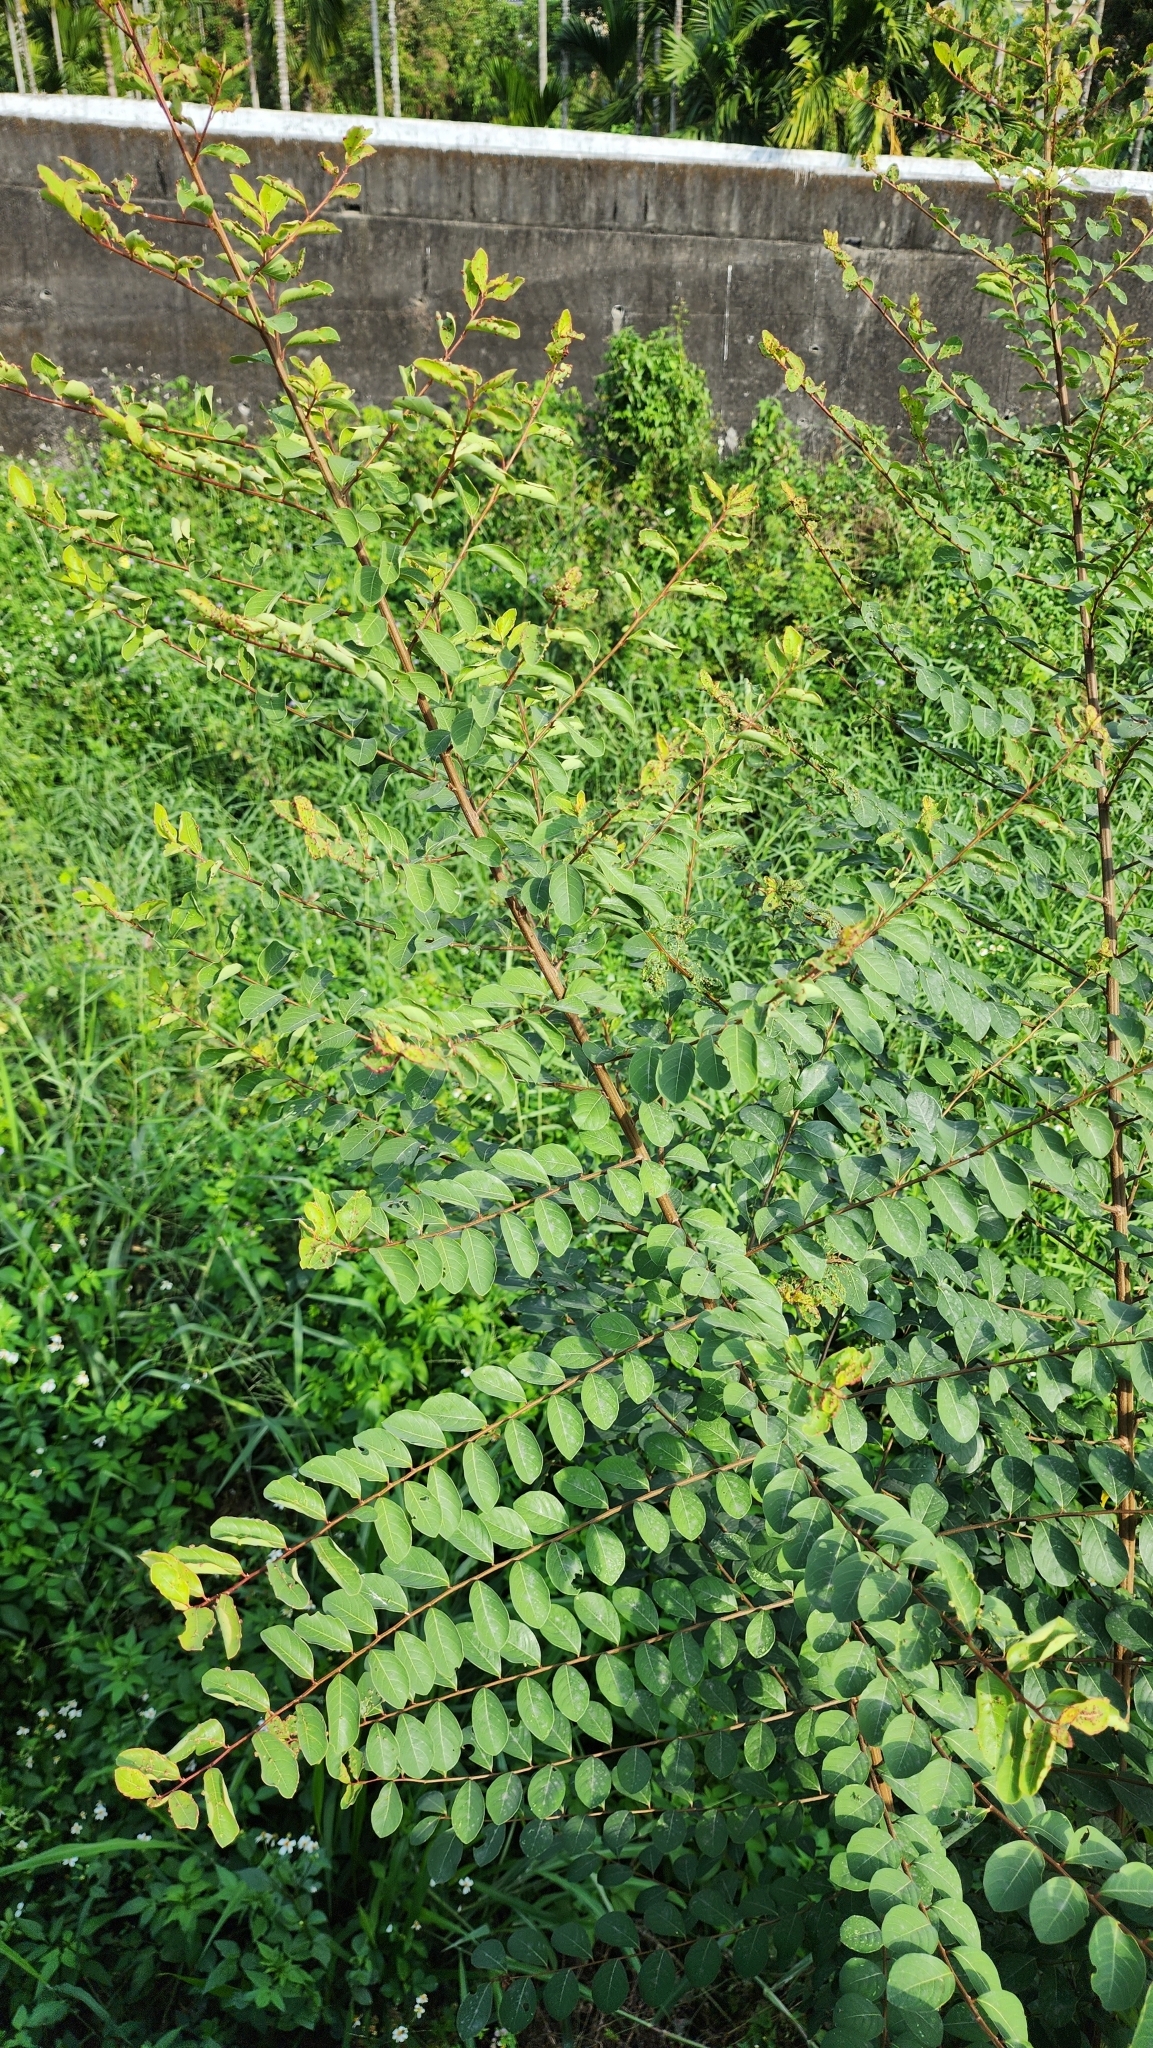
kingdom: Plantae
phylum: Tracheophyta
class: Magnoliopsida
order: Malpighiales
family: Phyllanthaceae
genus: Flueggea
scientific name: Flueggea virosa
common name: Common bushweed
